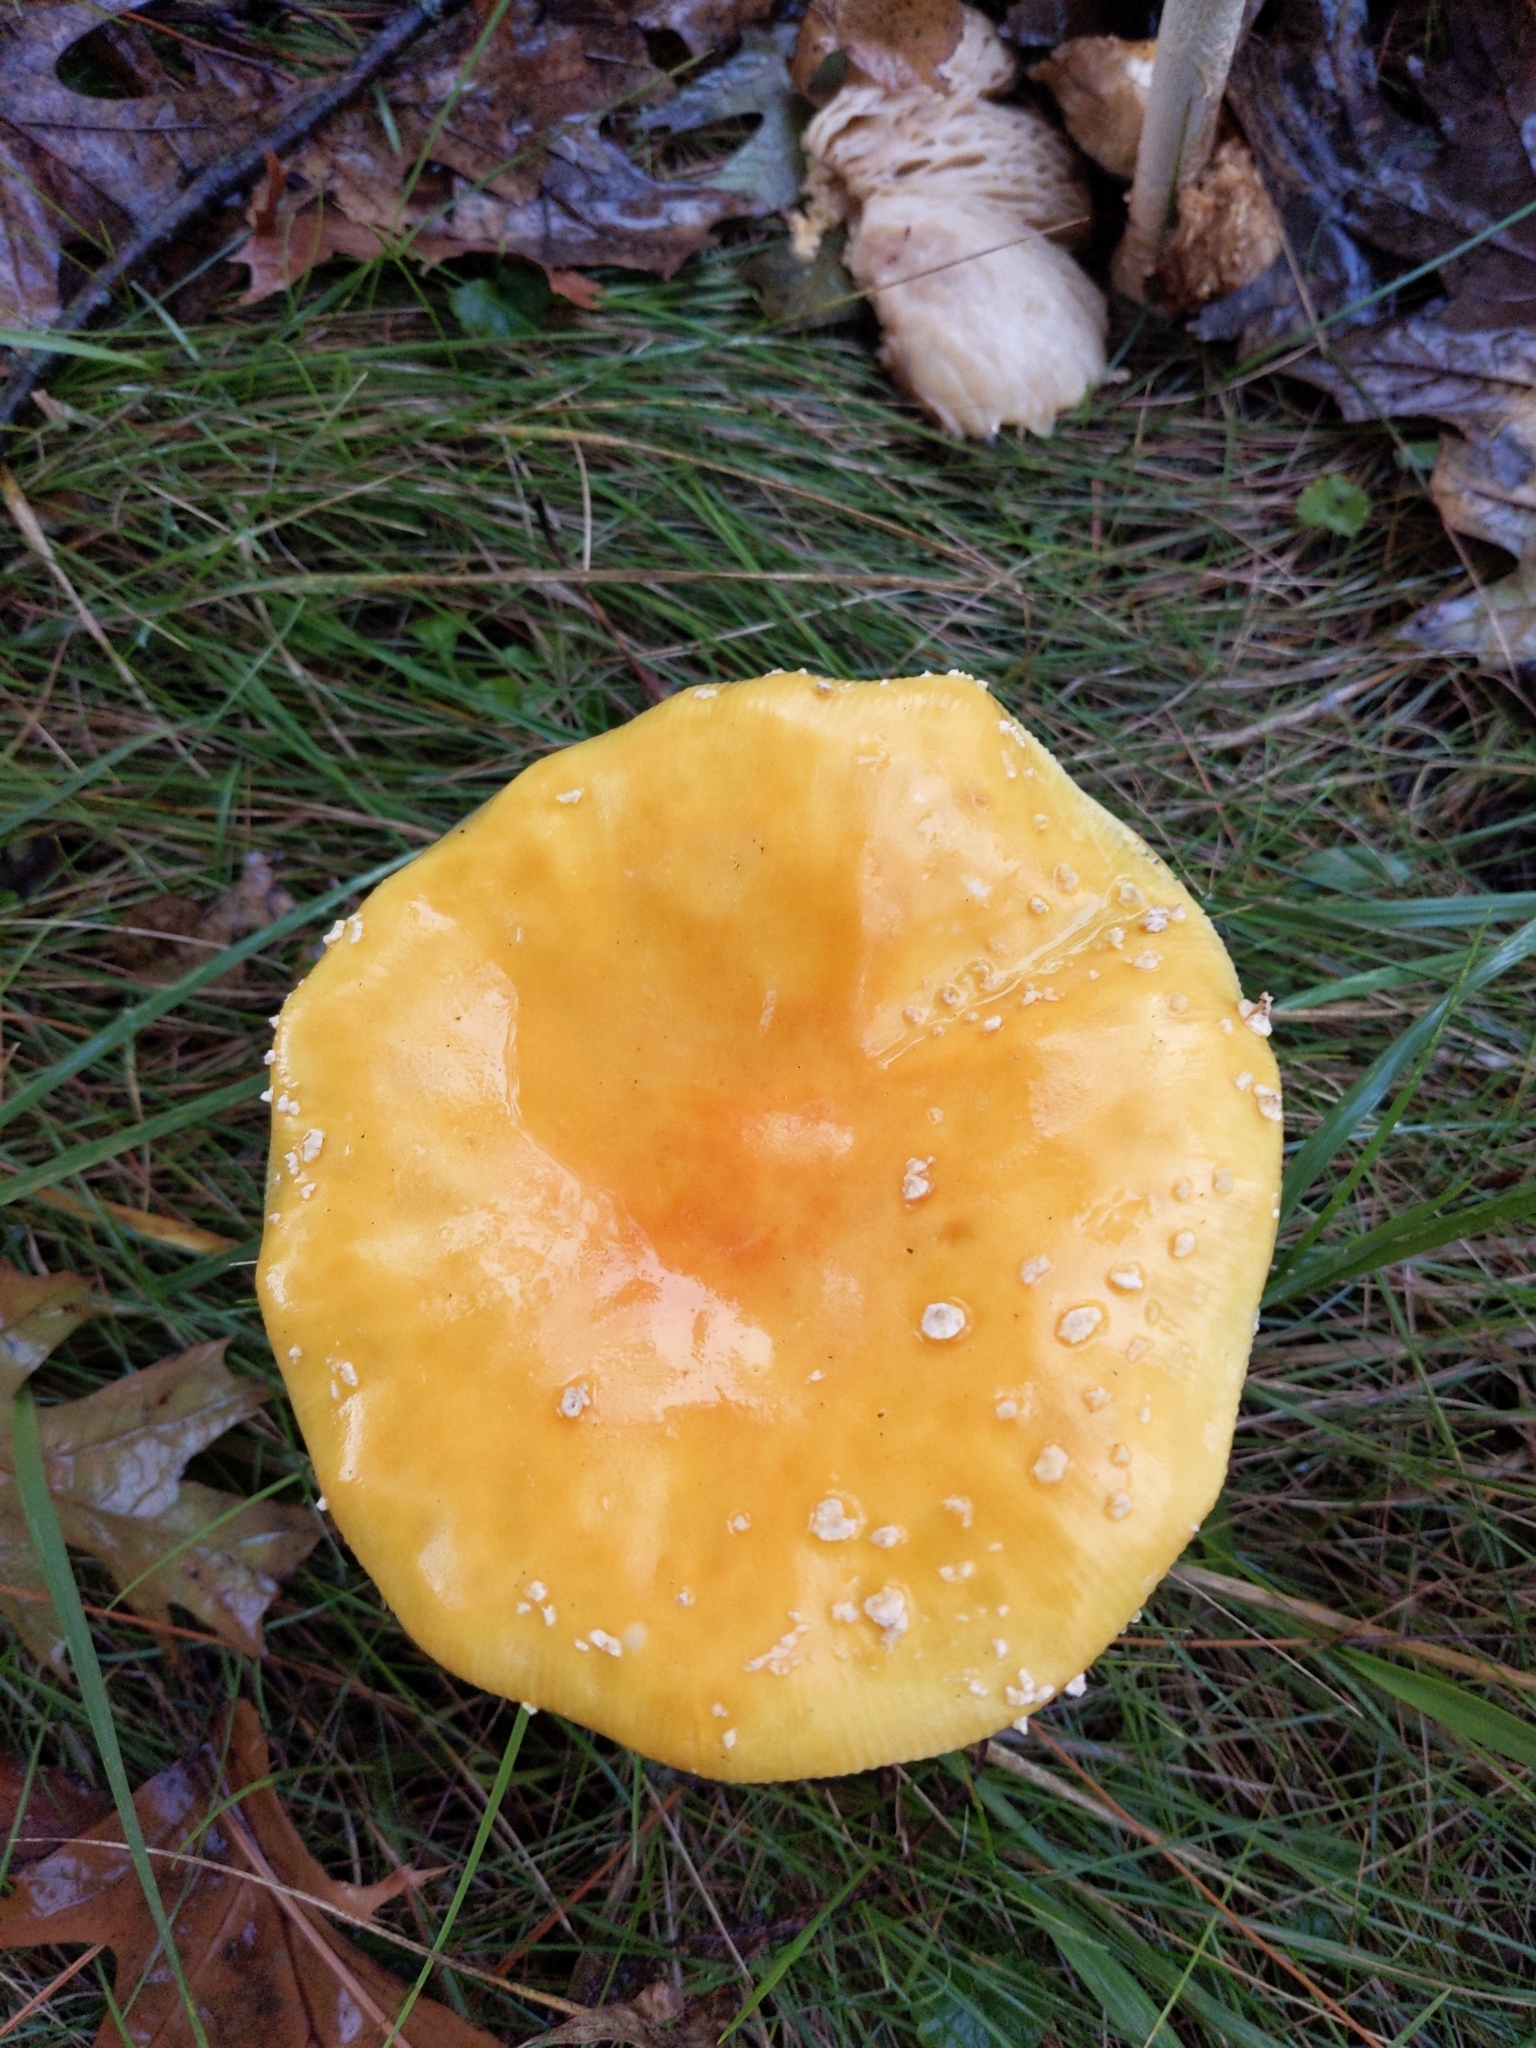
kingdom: Fungi
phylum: Basidiomycota
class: Agaricomycetes
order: Agaricales
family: Amanitaceae
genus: Amanita
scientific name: Amanita muscaria
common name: Fly agaric
